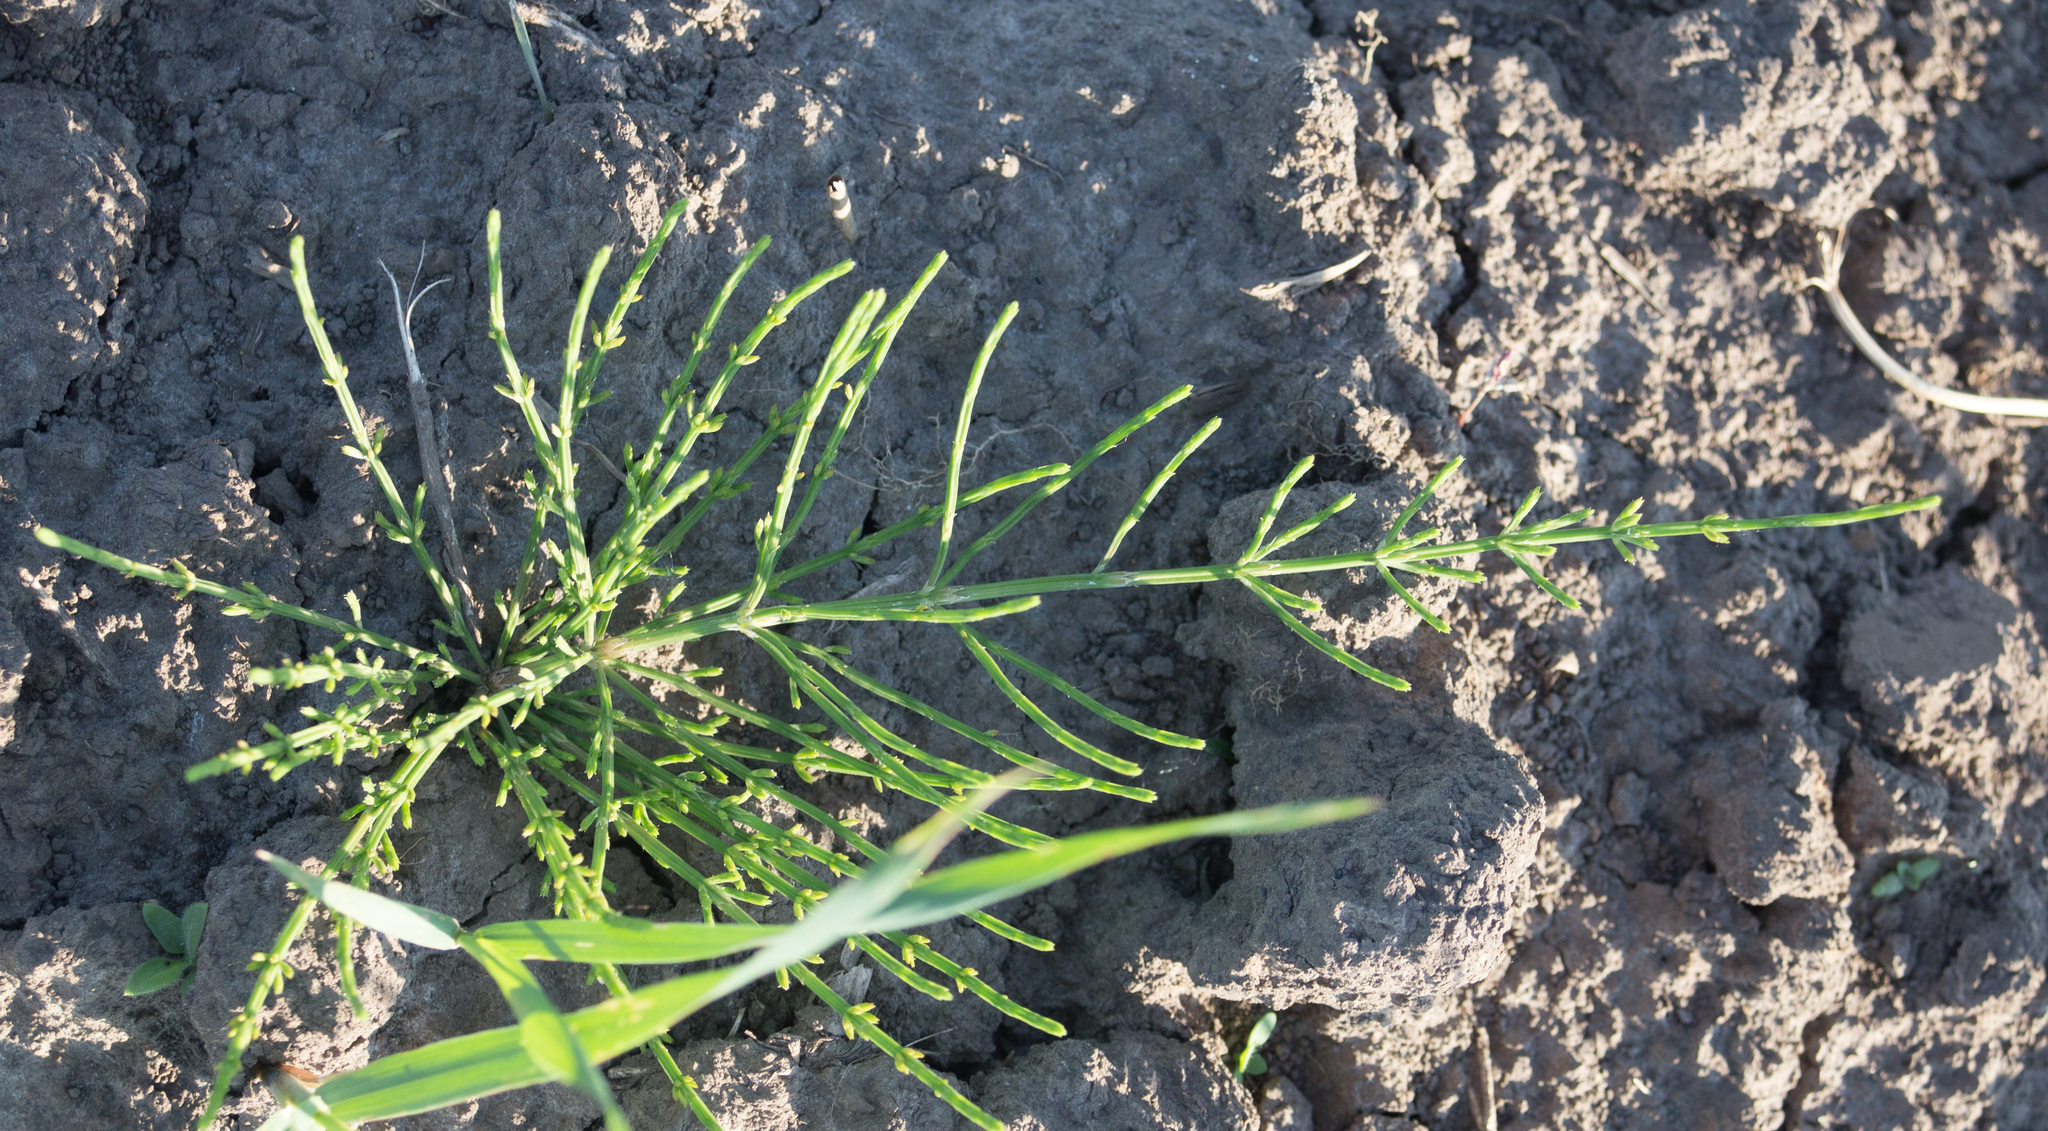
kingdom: Plantae
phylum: Tracheophyta
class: Polypodiopsida
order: Equisetales
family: Equisetaceae
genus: Equisetum
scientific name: Equisetum arvense
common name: Field horsetail
